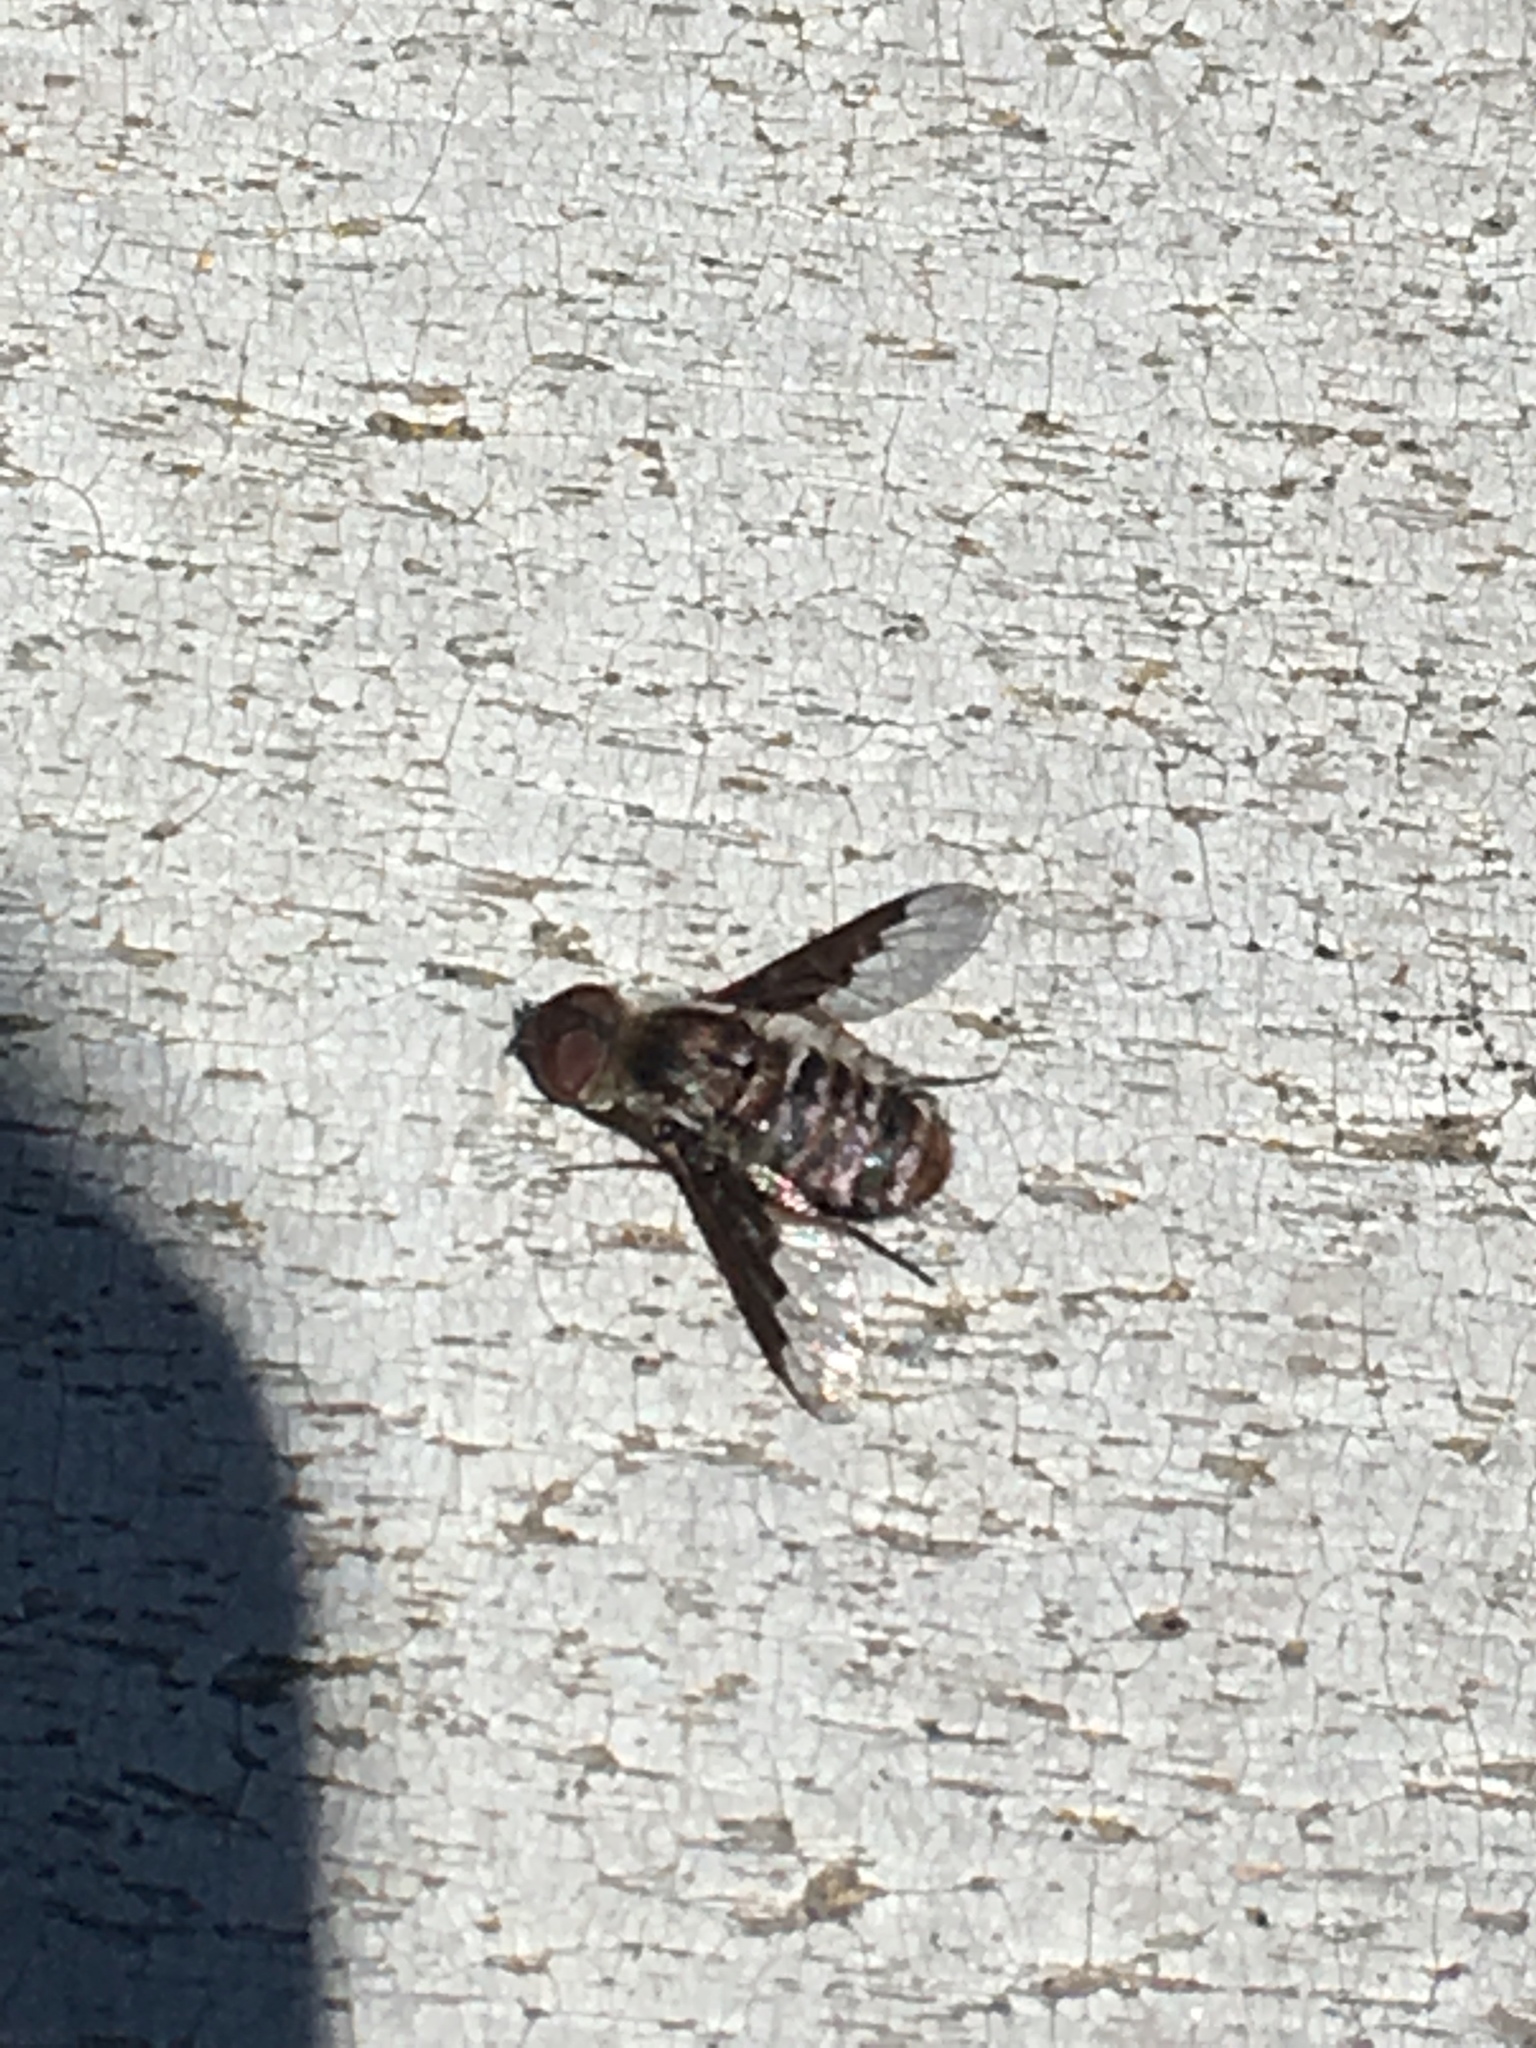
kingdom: Animalia
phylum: Arthropoda
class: Insecta
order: Diptera
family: Bombyliidae
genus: Hemipenthes
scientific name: Hemipenthes edwardsii
